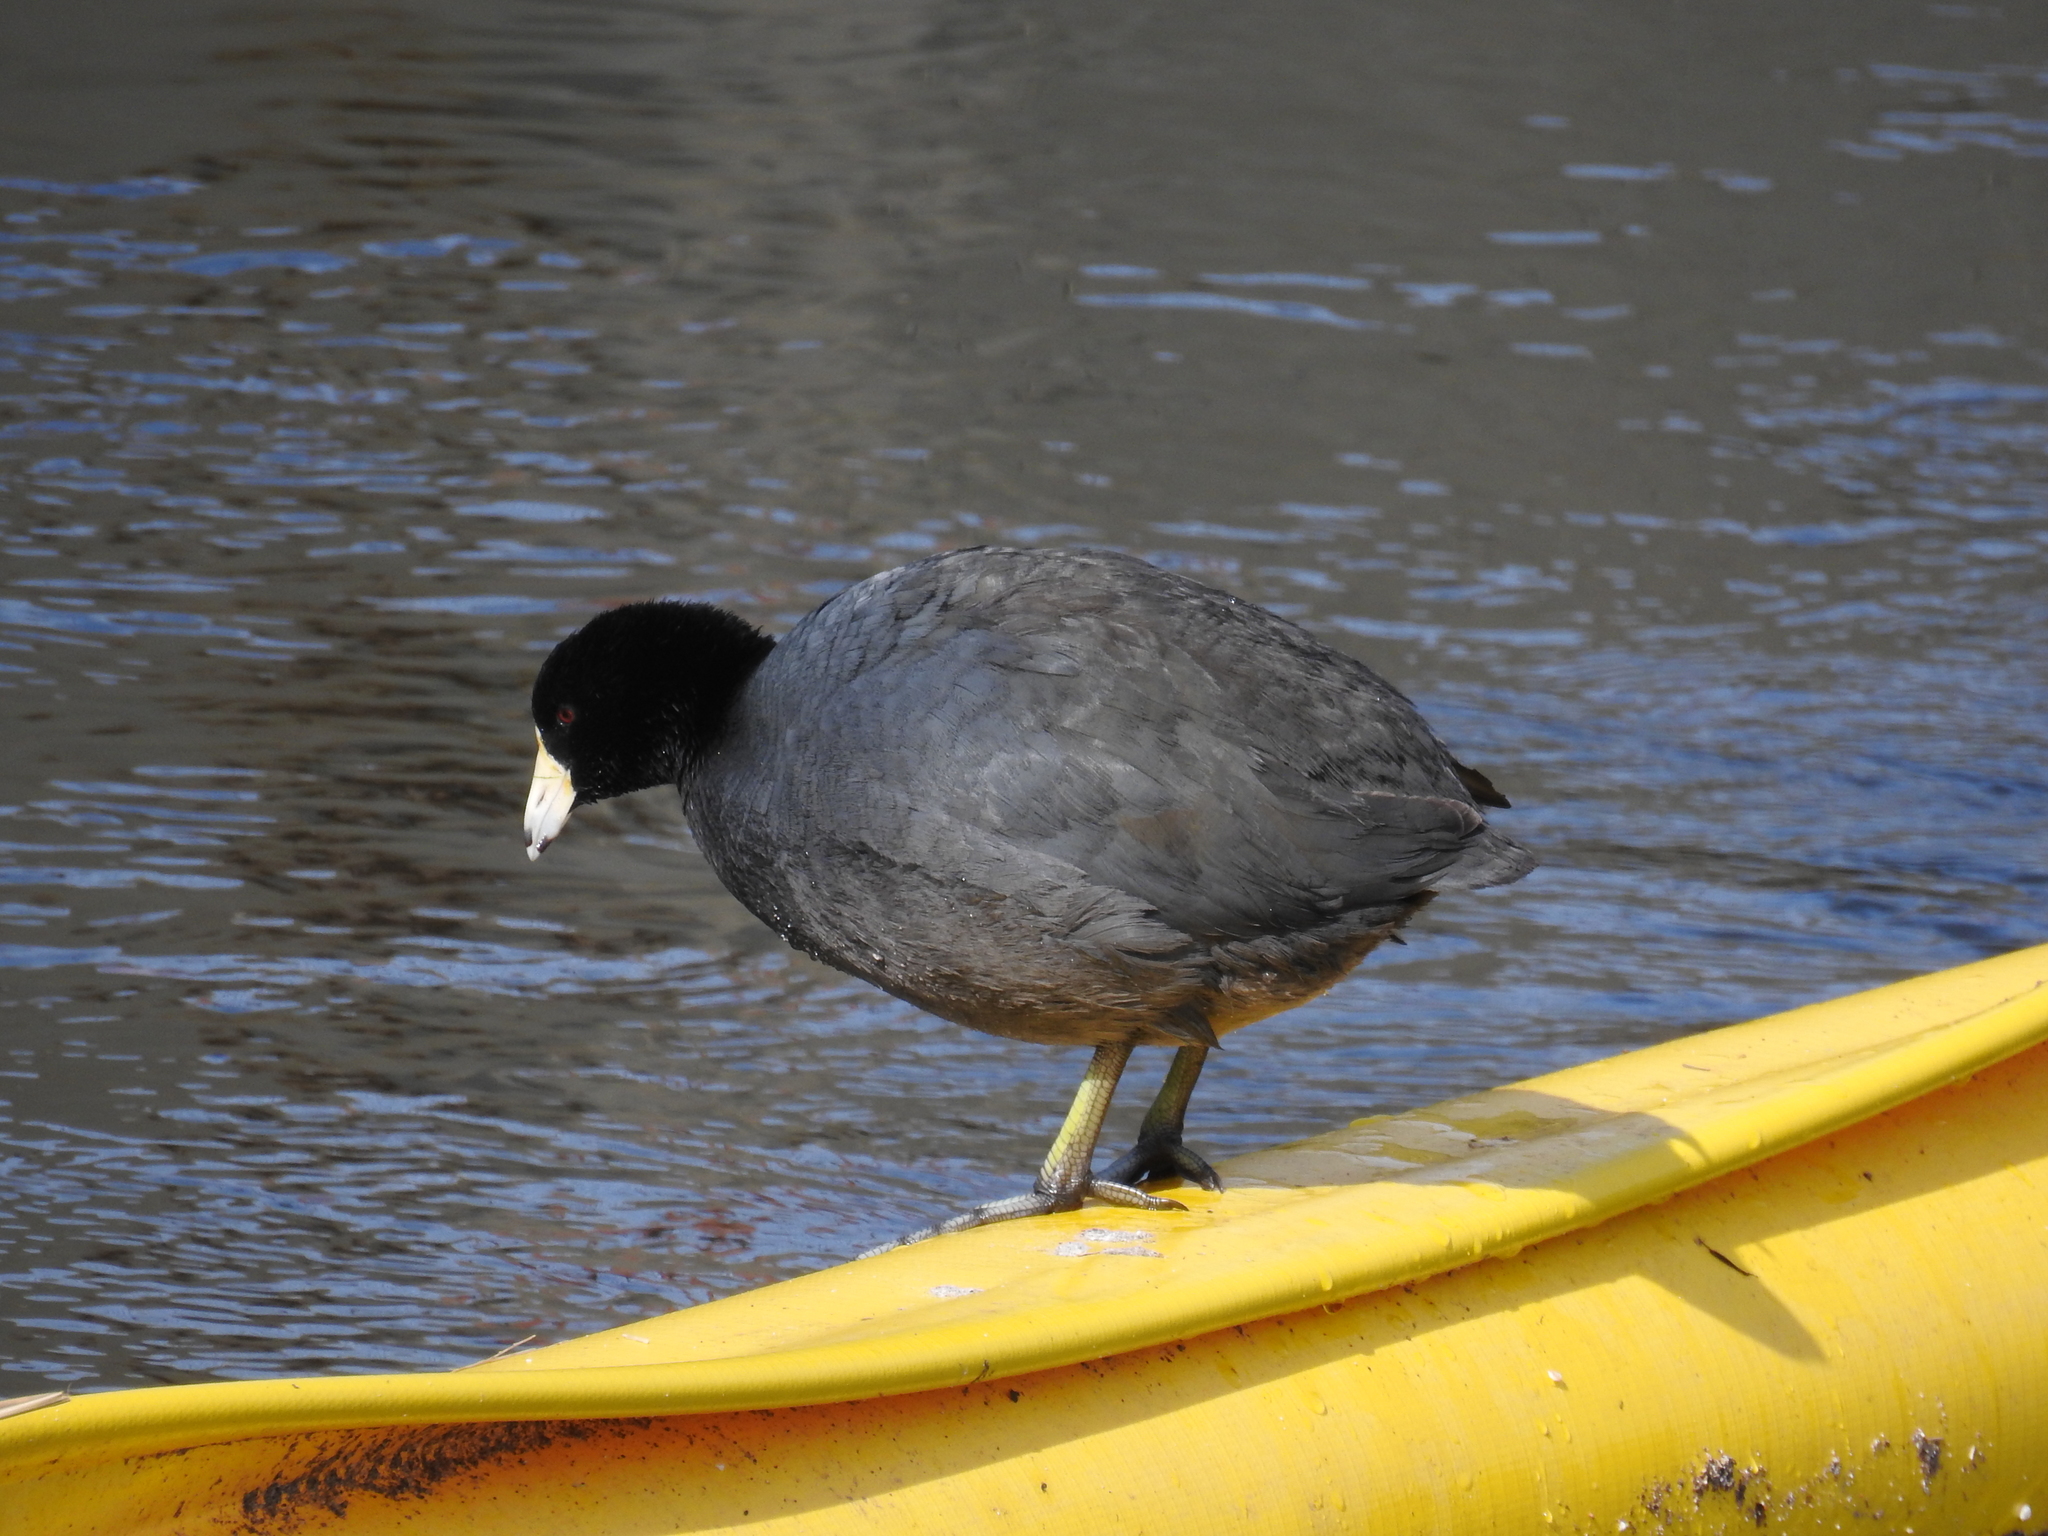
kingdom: Animalia
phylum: Chordata
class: Aves
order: Gruiformes
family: Rallidae
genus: Fulica
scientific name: Fulica americana
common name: American coot
